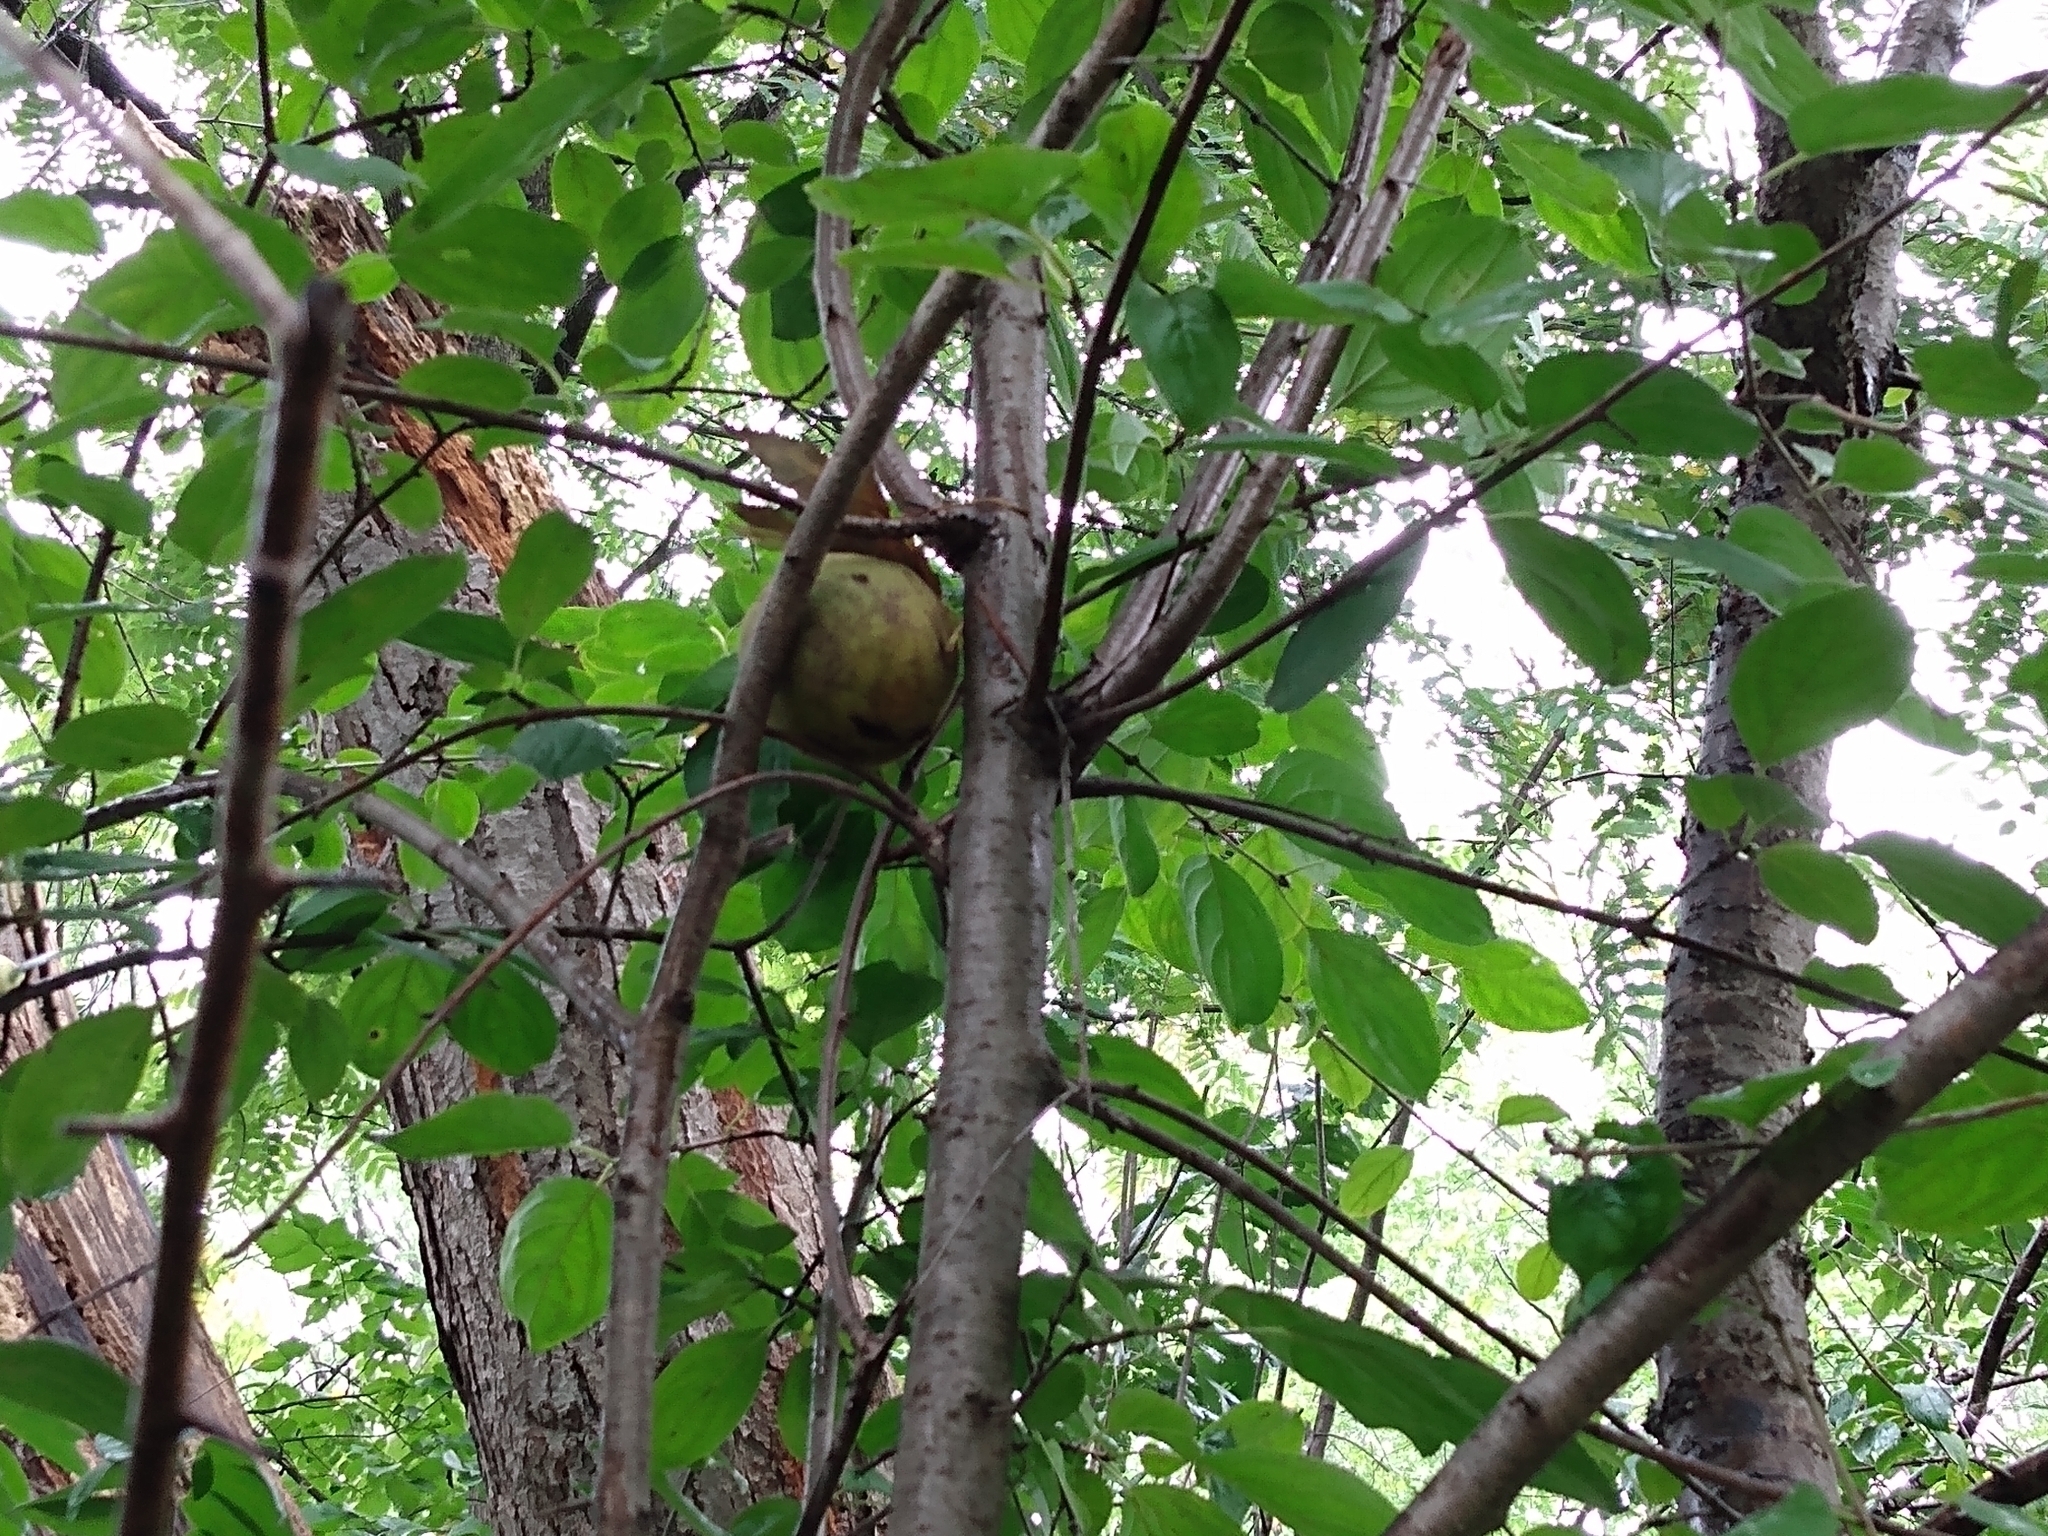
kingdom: Plantae
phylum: Tracheophyta
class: Magnoliopsida
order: Fagales
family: Juglandaceae
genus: Juglans
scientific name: Juglans nigra
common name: Black walnut
